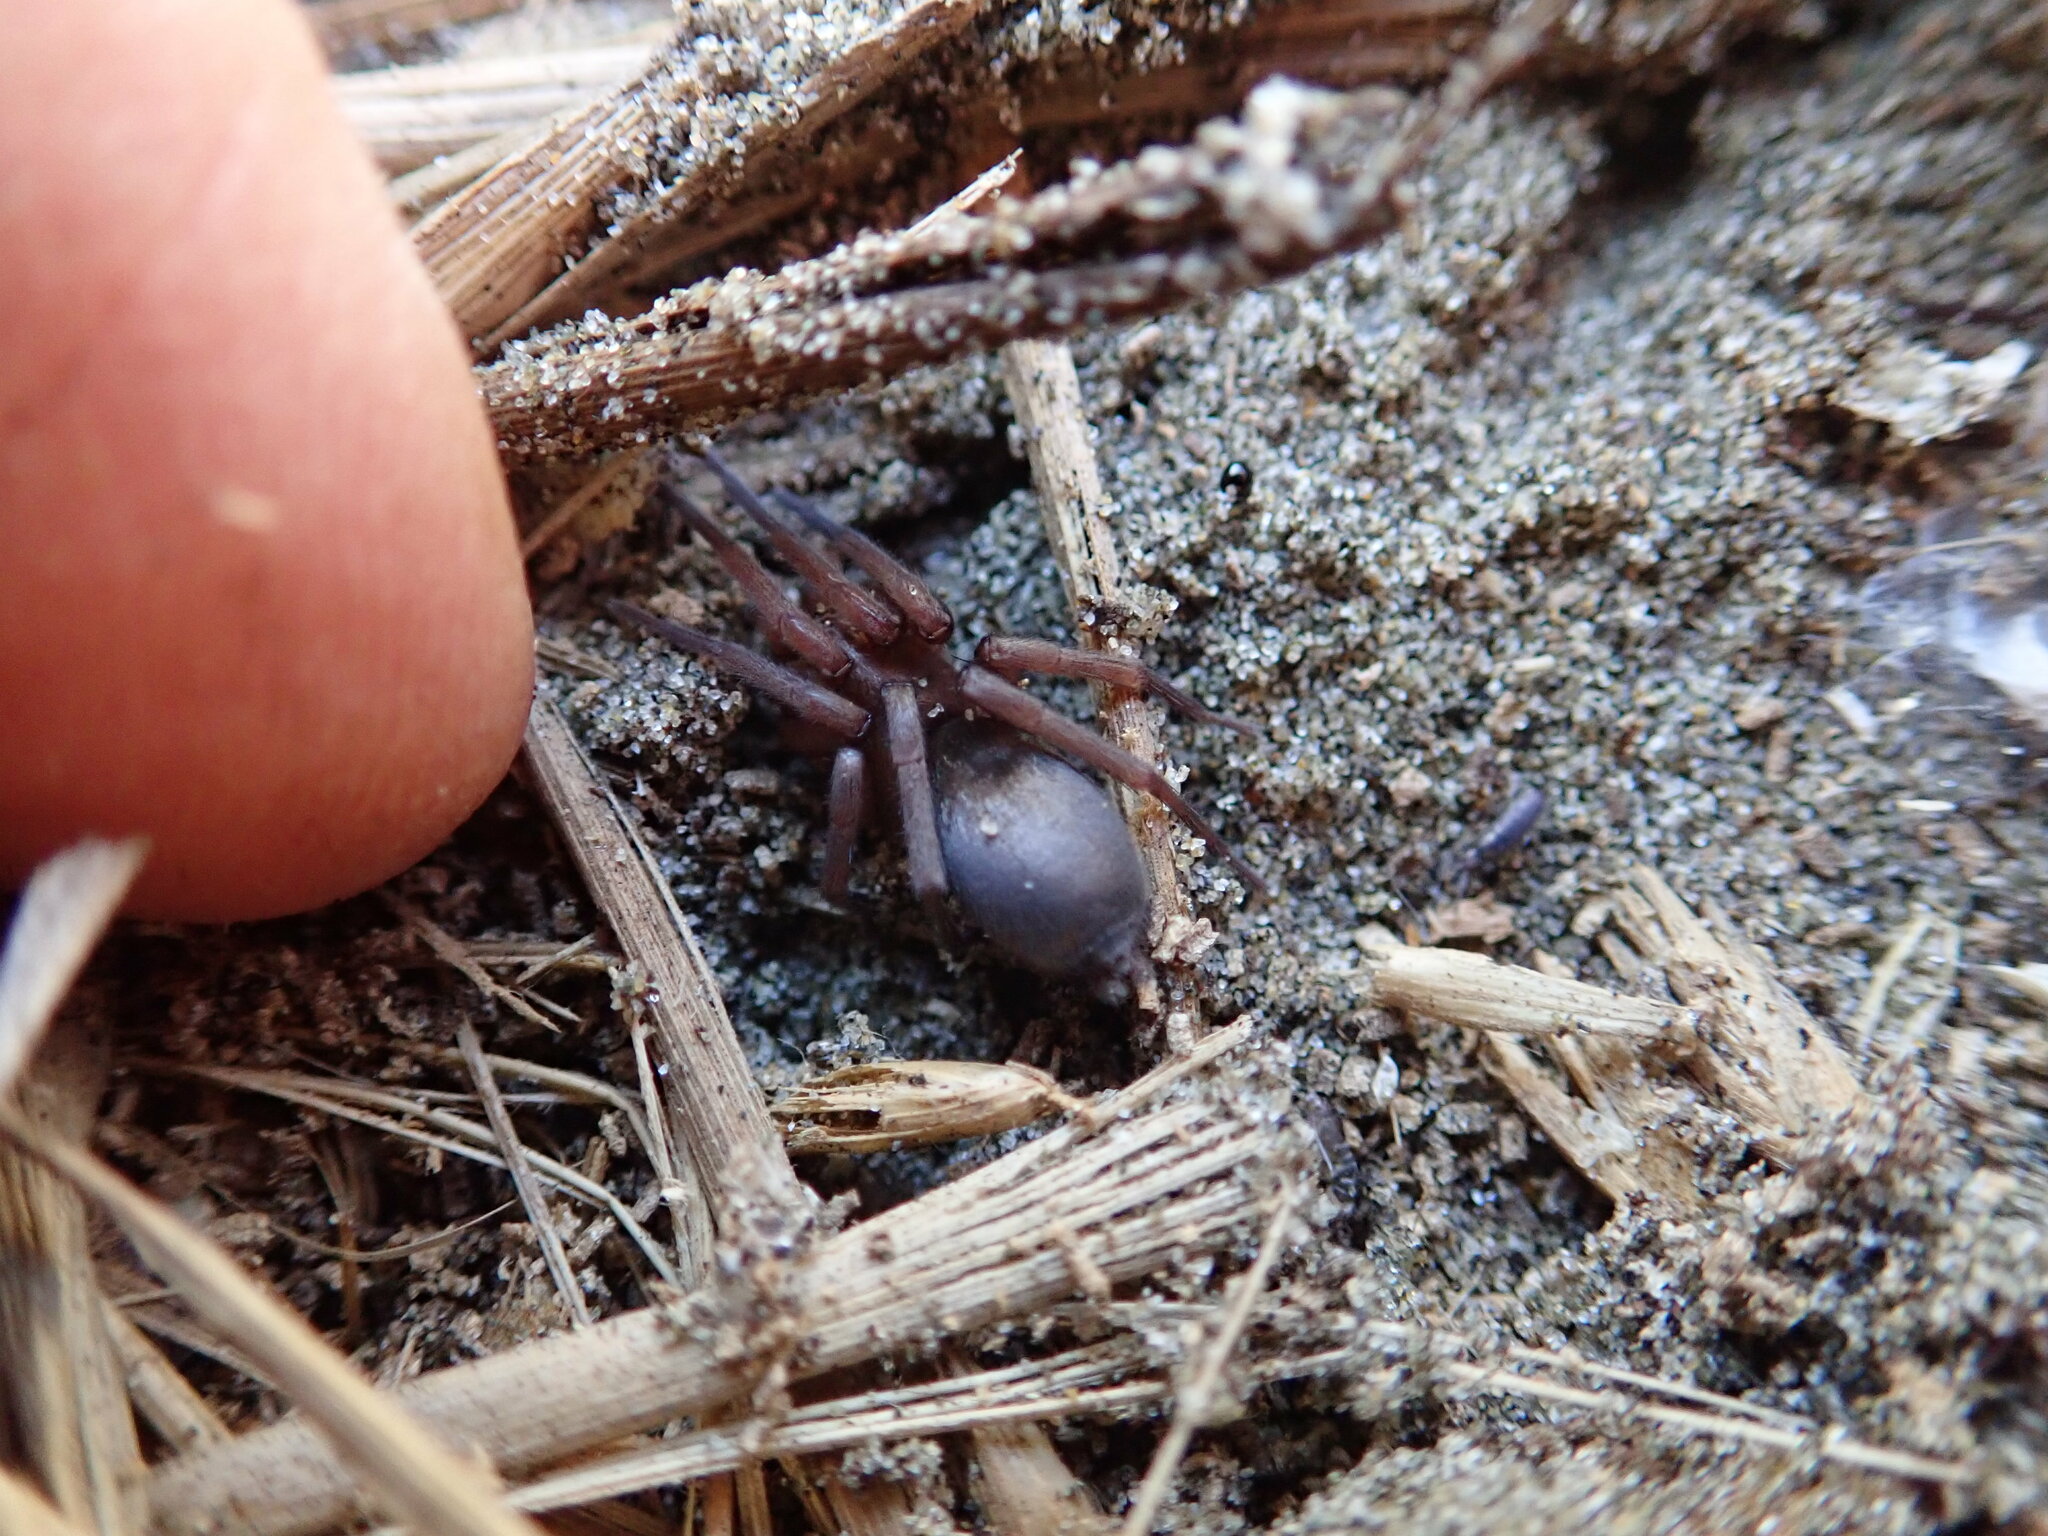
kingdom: Animalia
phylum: Arthropoda
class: Arachnida
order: Araneae
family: Gnaphosidae
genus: Hypodrassodes
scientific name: Hypodrassodes maoricus
